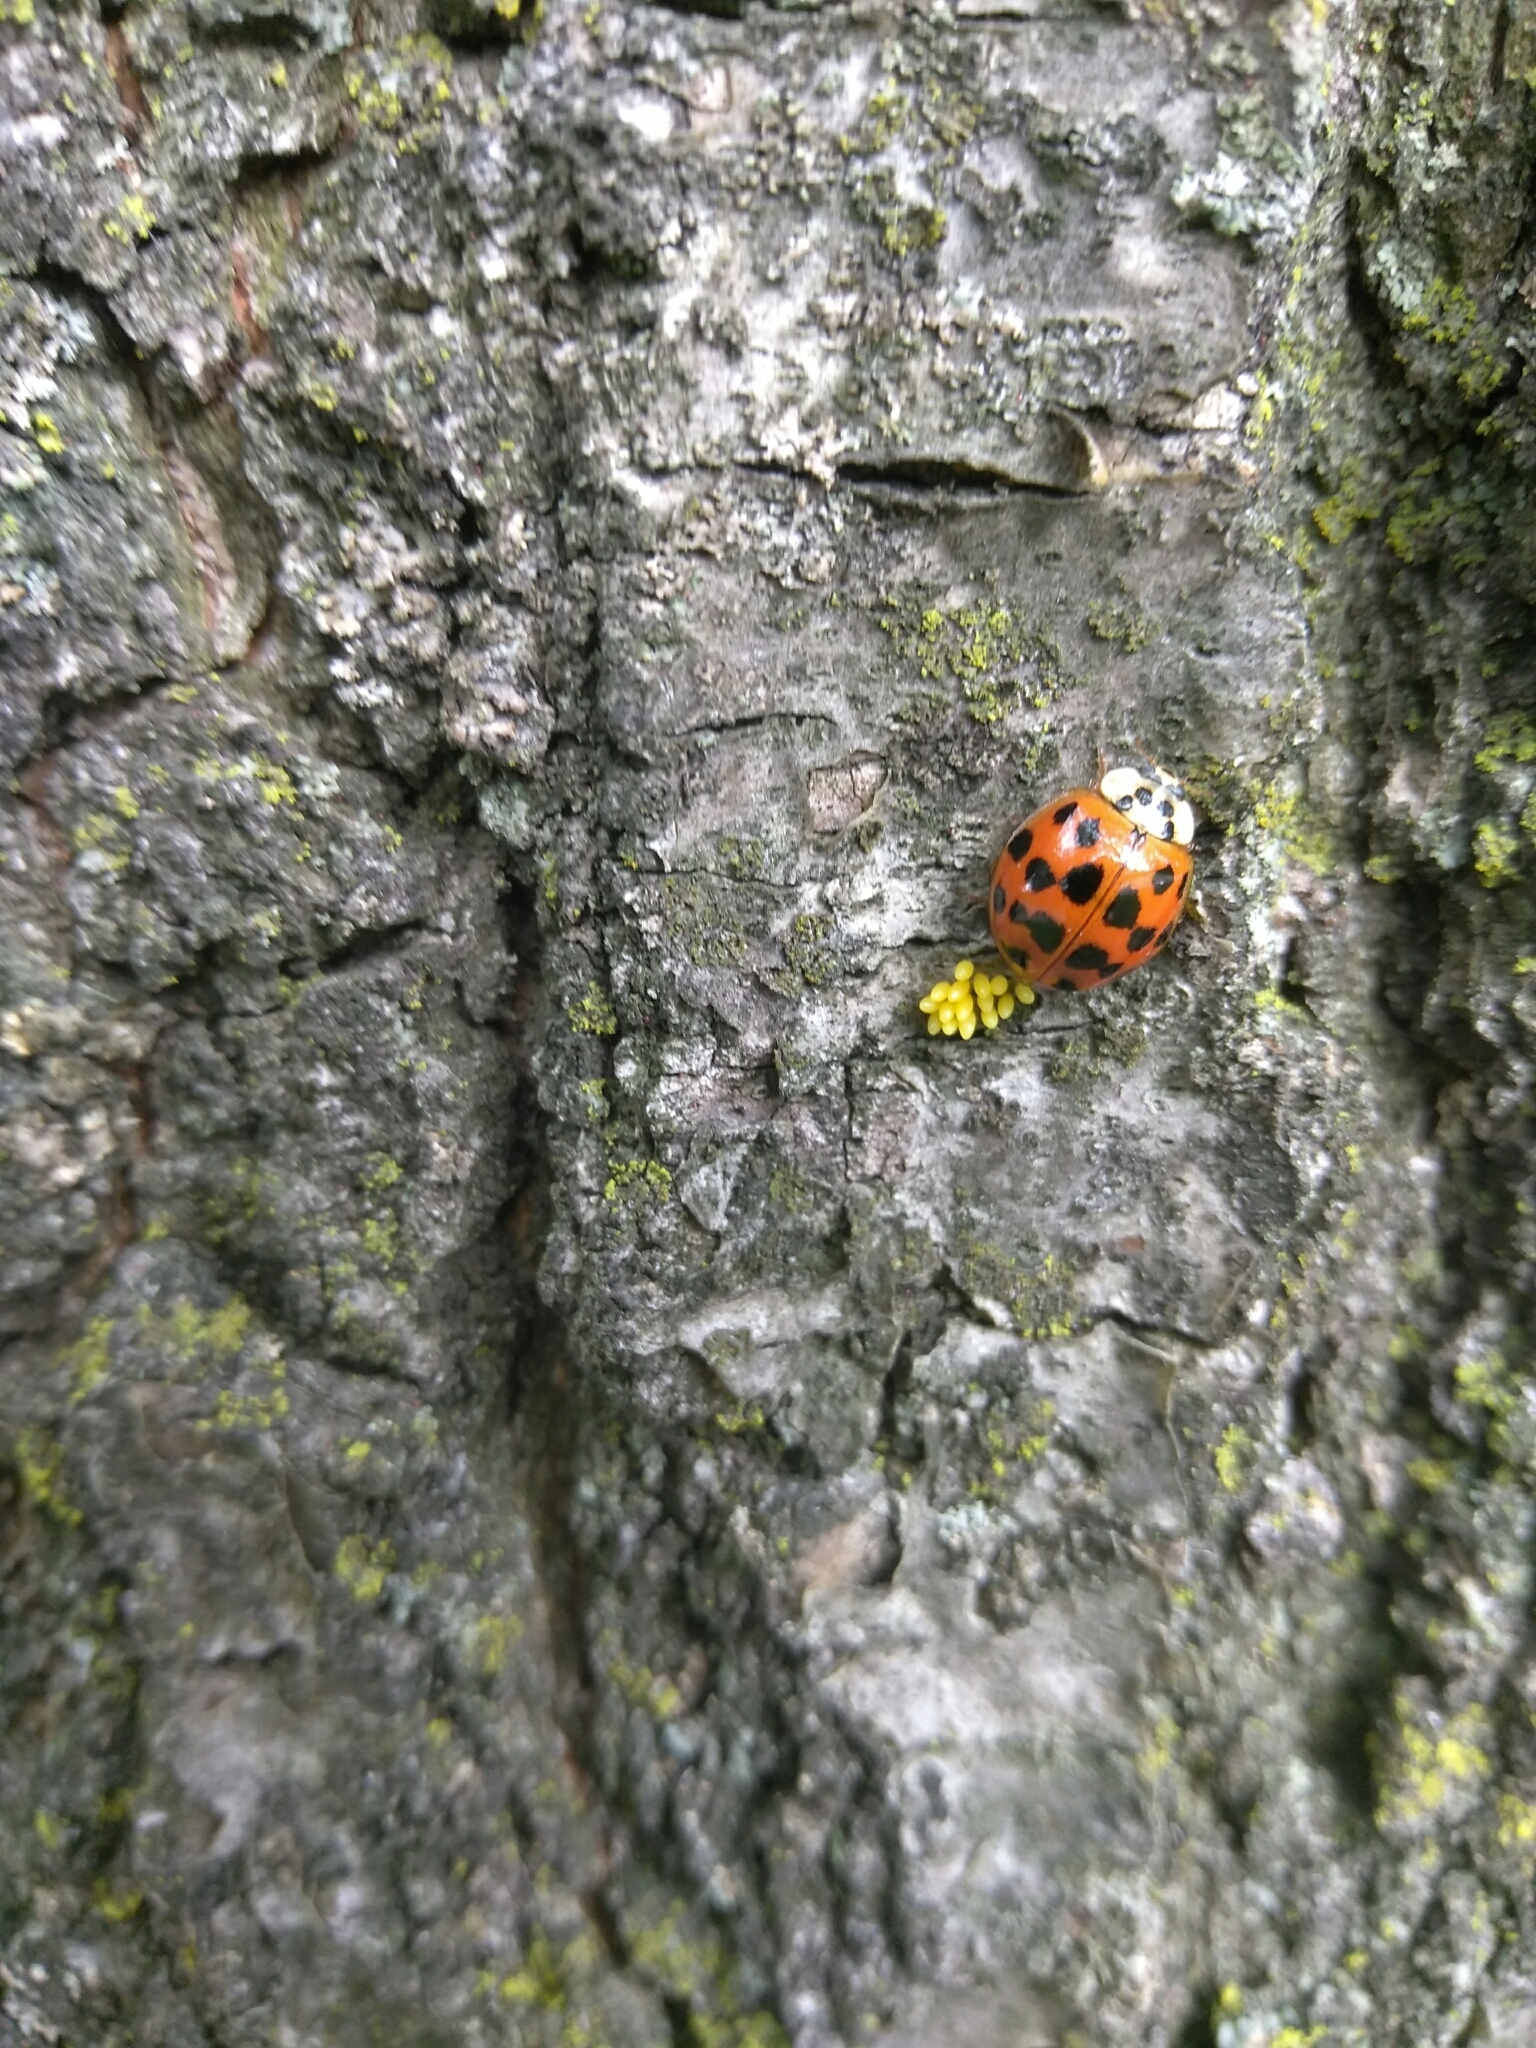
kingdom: Animalia
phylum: Arthropoda
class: Insecta
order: Coleoptera
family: Coccinellidae
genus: Harmonia
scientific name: Harmonia axyridis
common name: Harlequin ladybird
